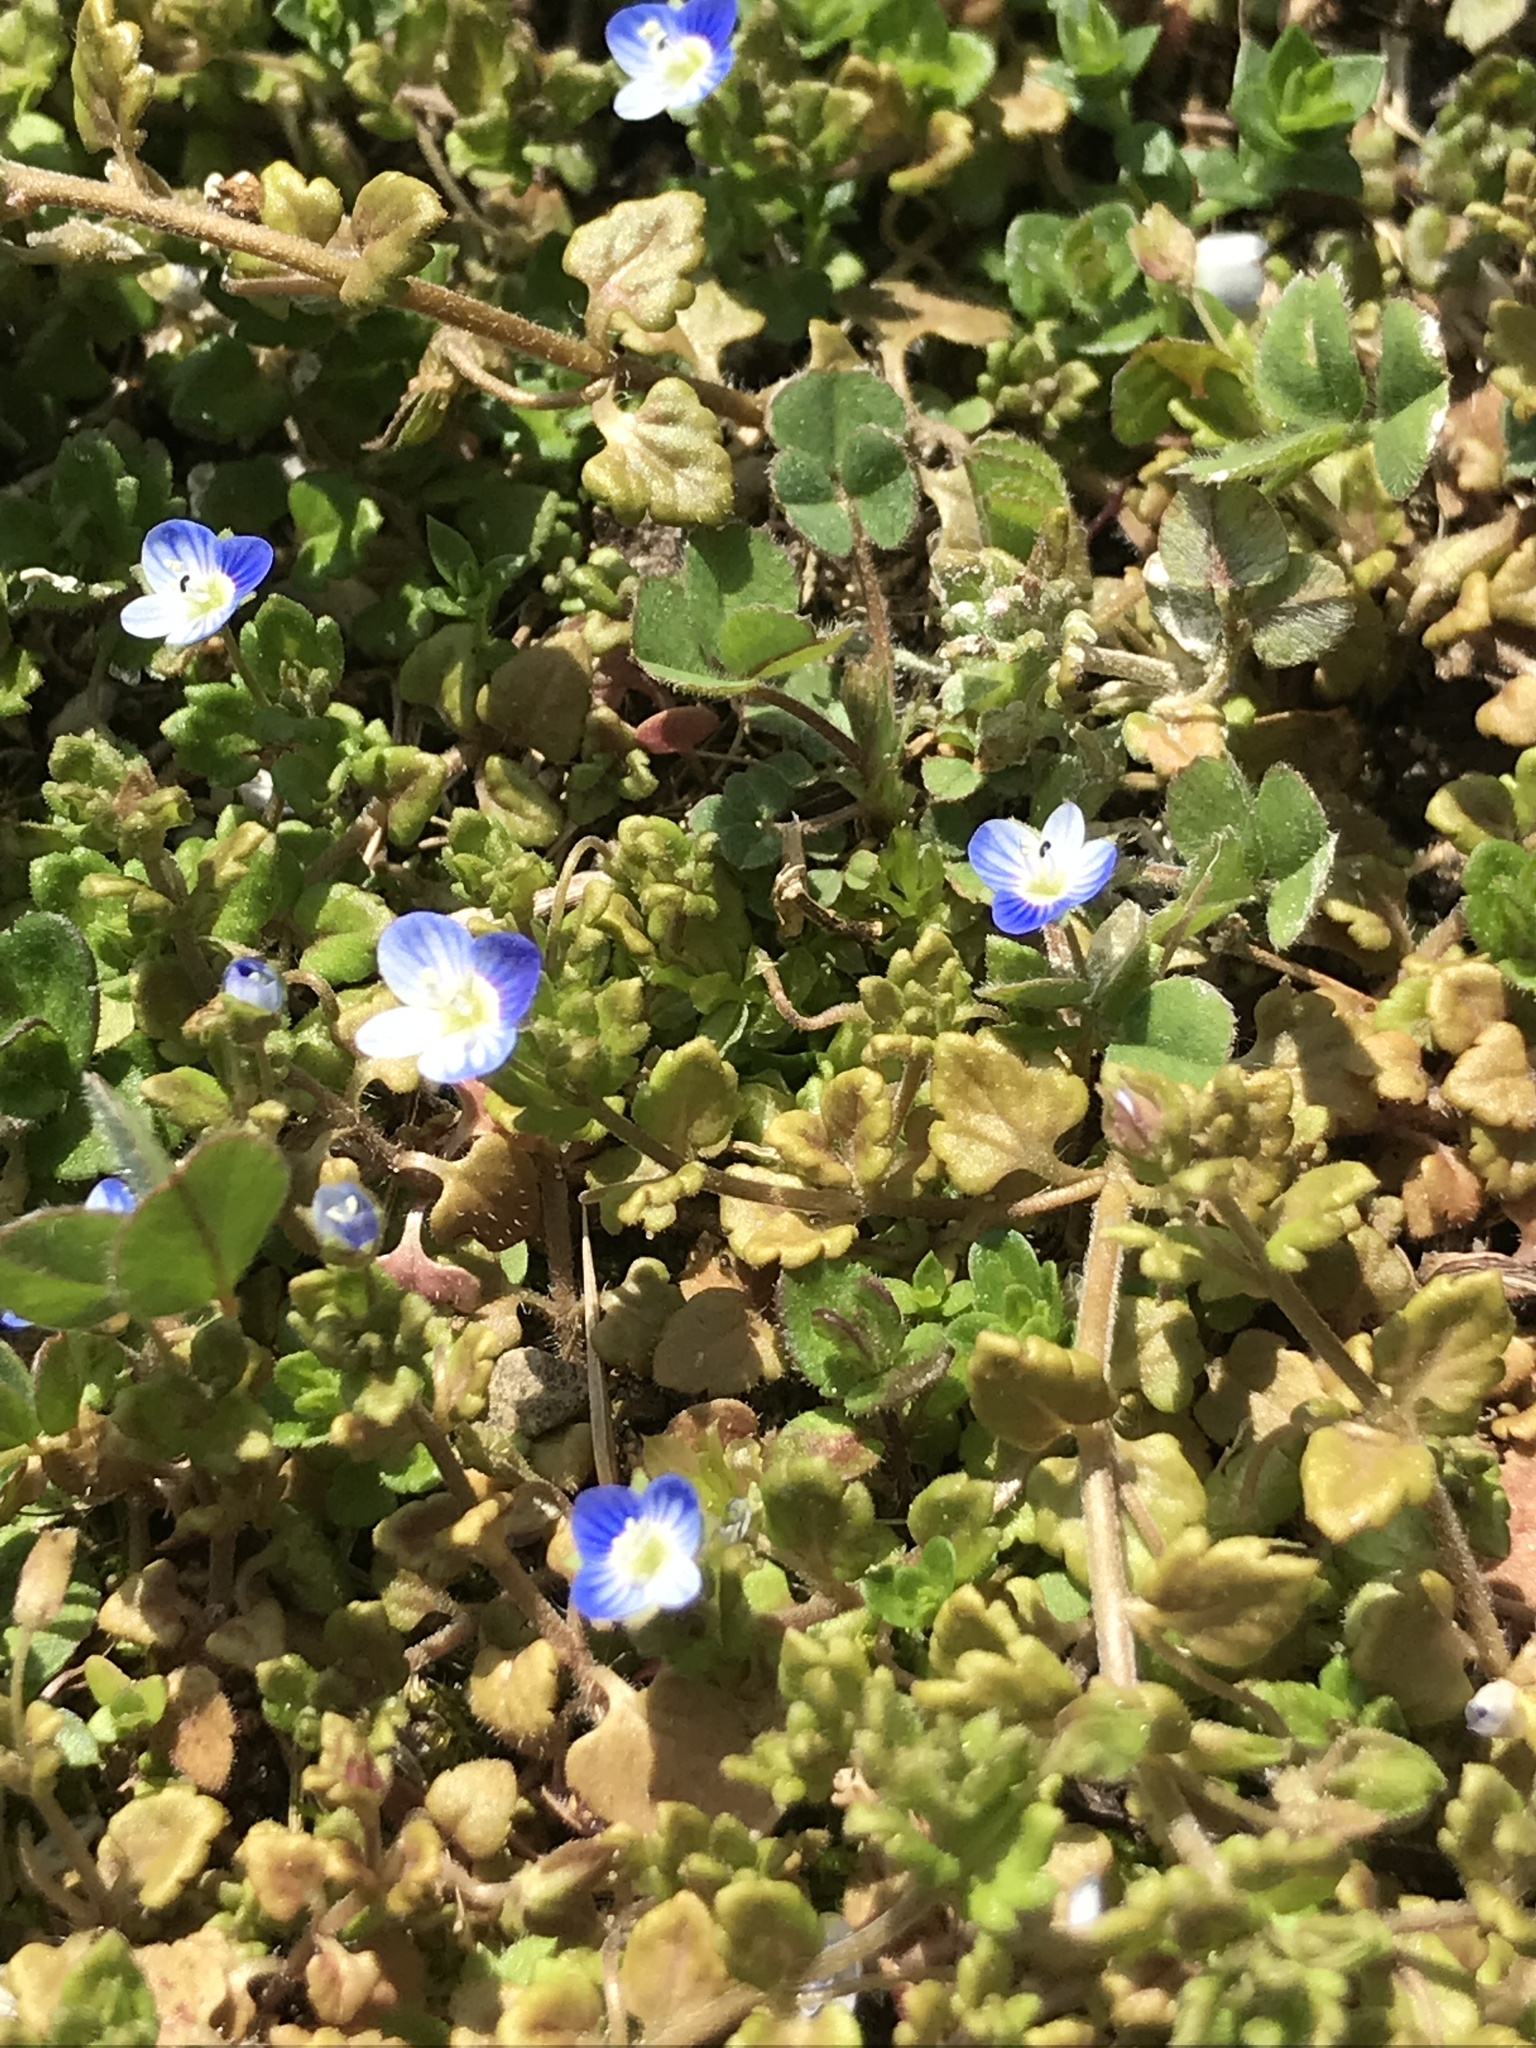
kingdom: Plantae
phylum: Tracheophyta
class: Magnoliopsida
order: Lamiales
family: Plantaginaceae
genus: Veronica
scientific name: Veronica persica
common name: Common field-speedwell
